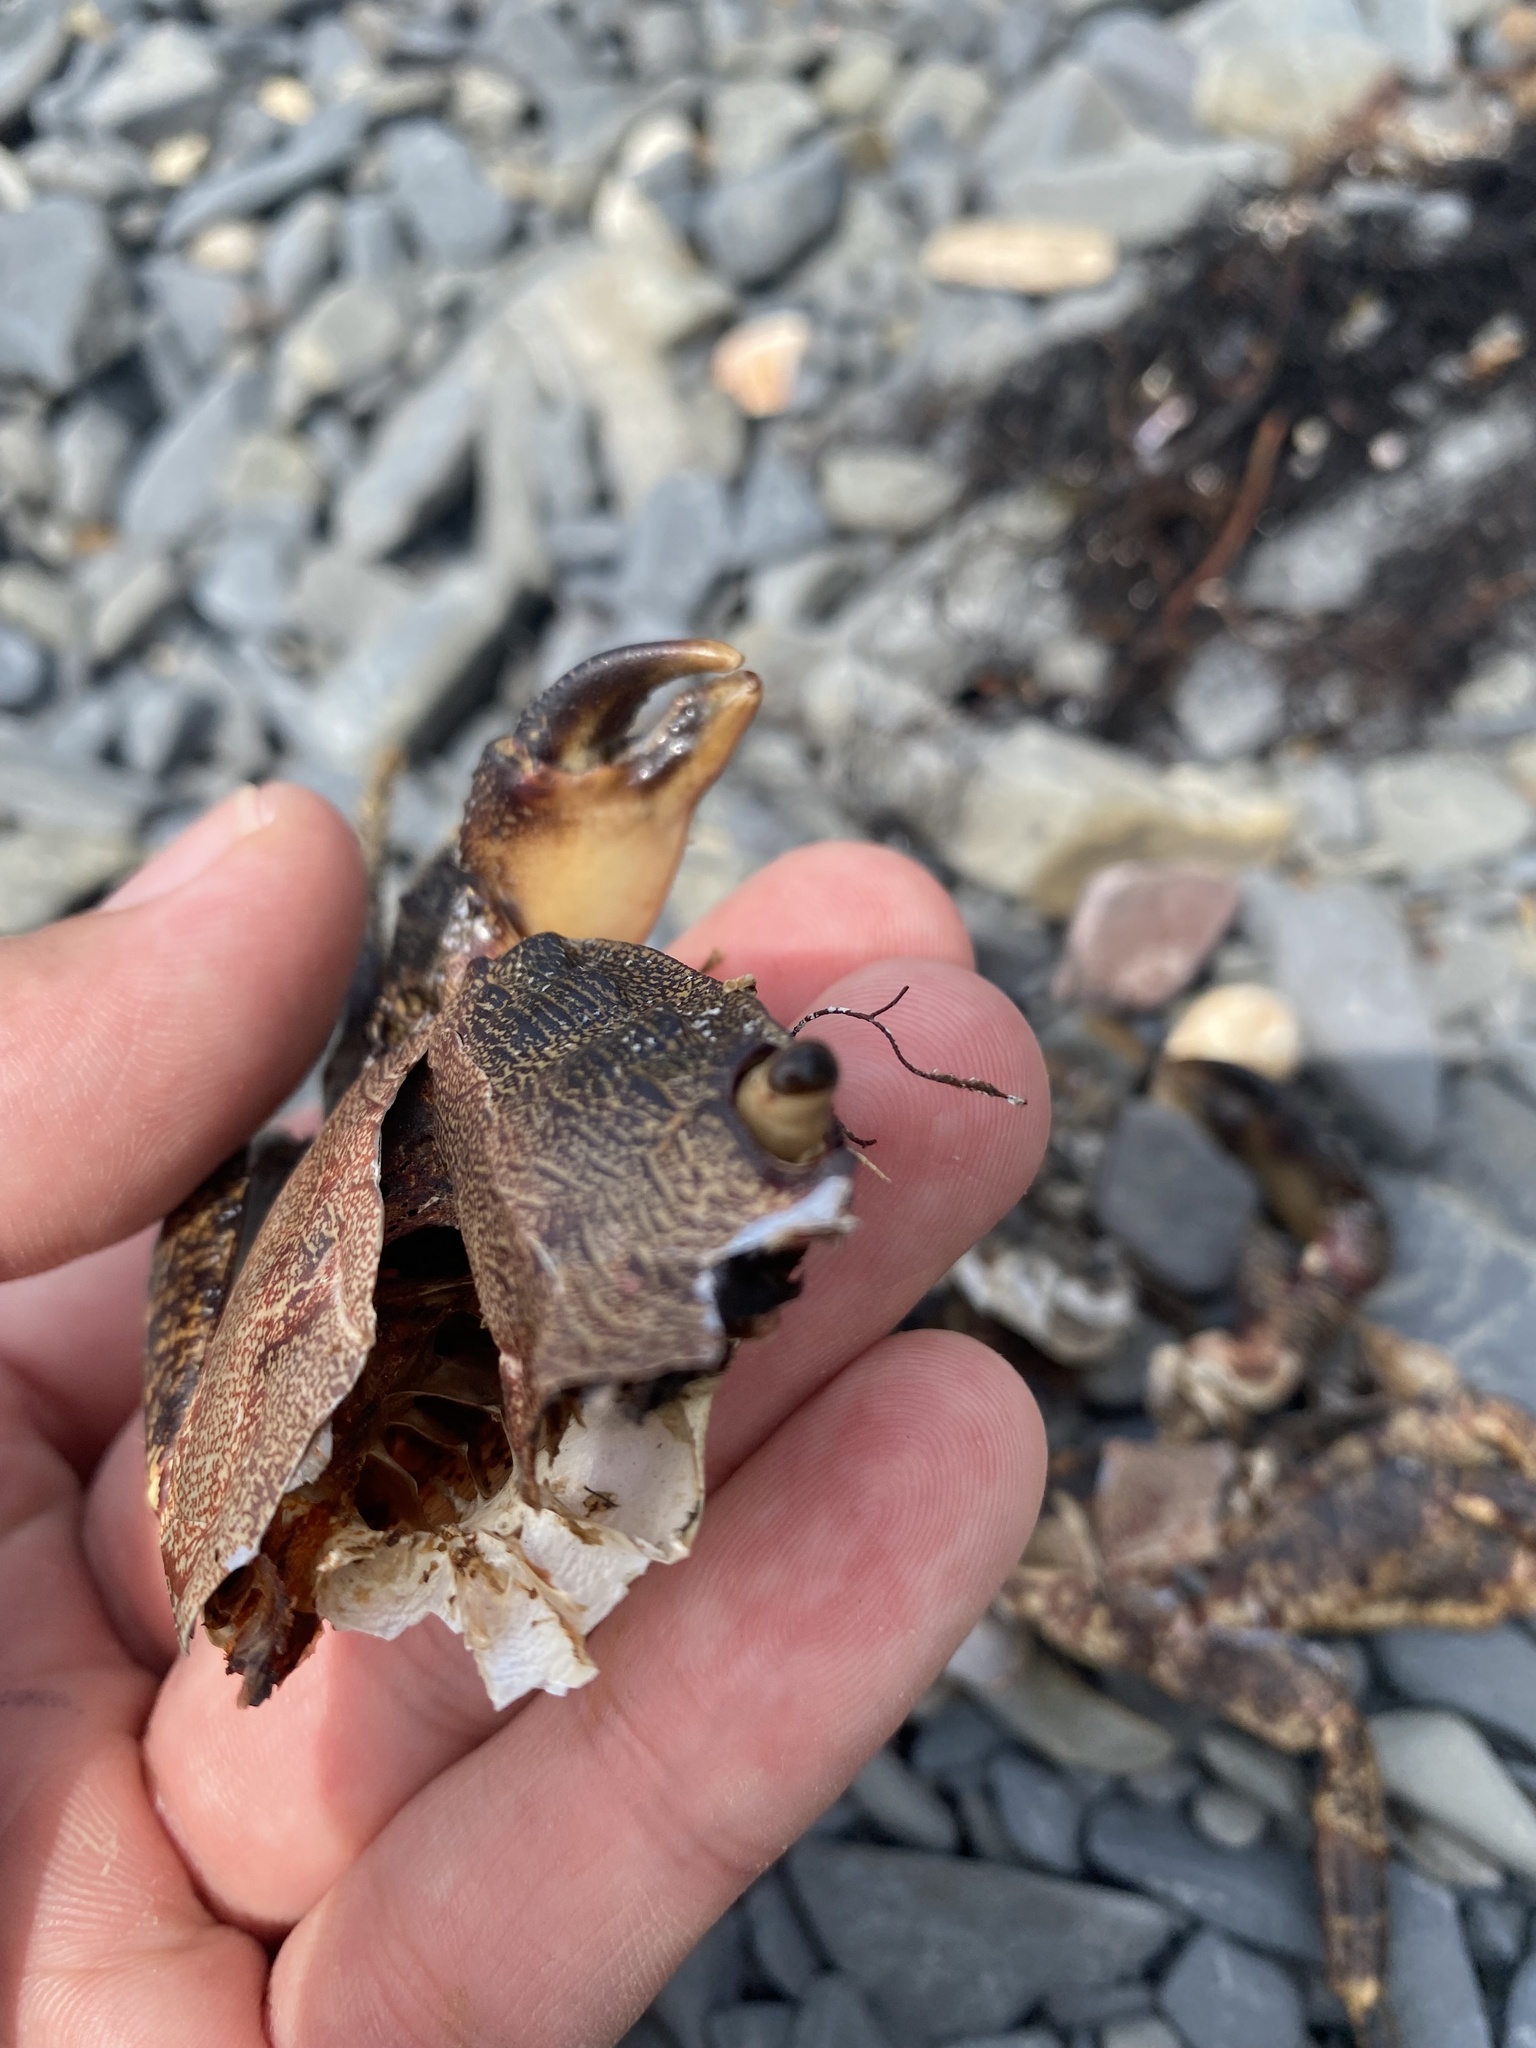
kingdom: Animalia
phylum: Arthropoda
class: Malacostraca
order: Decapoda
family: Grapsidae
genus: Pachygrapsus
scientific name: Pachygrapsus marmoratus
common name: Marbled rock crab
